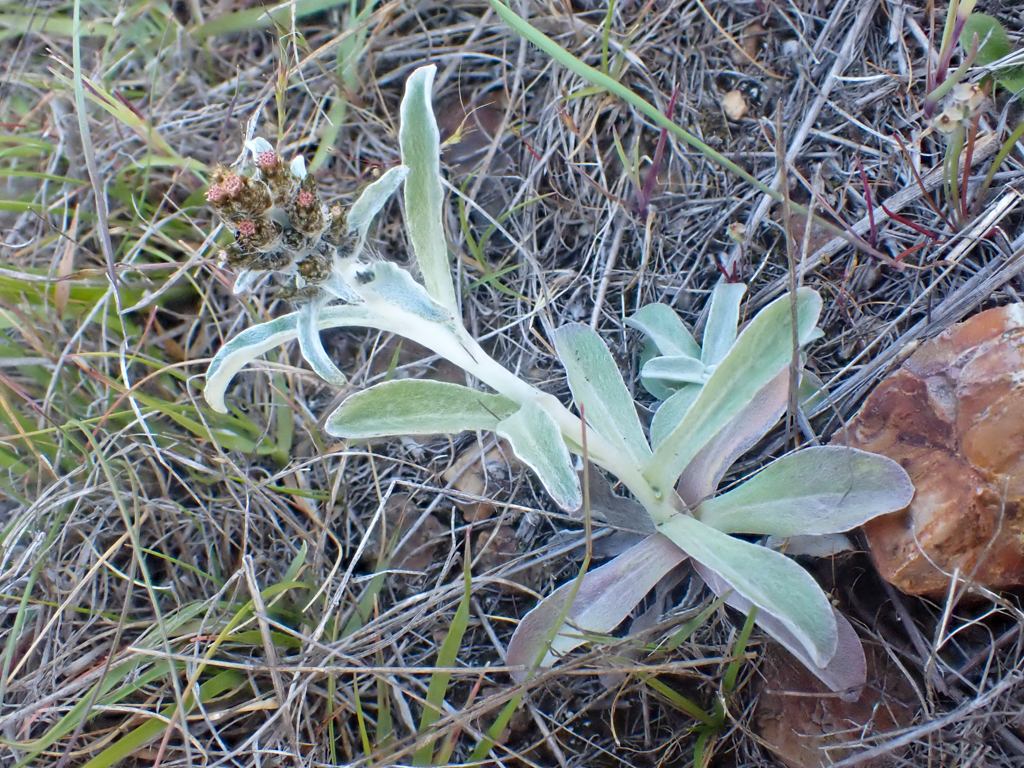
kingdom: Plantae
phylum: Tracheophyta
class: Magnoliopsida
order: Asterales
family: Asteraceae
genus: Gamochaeta
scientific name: Gamochaeta ustulata
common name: Pacific cudweed
